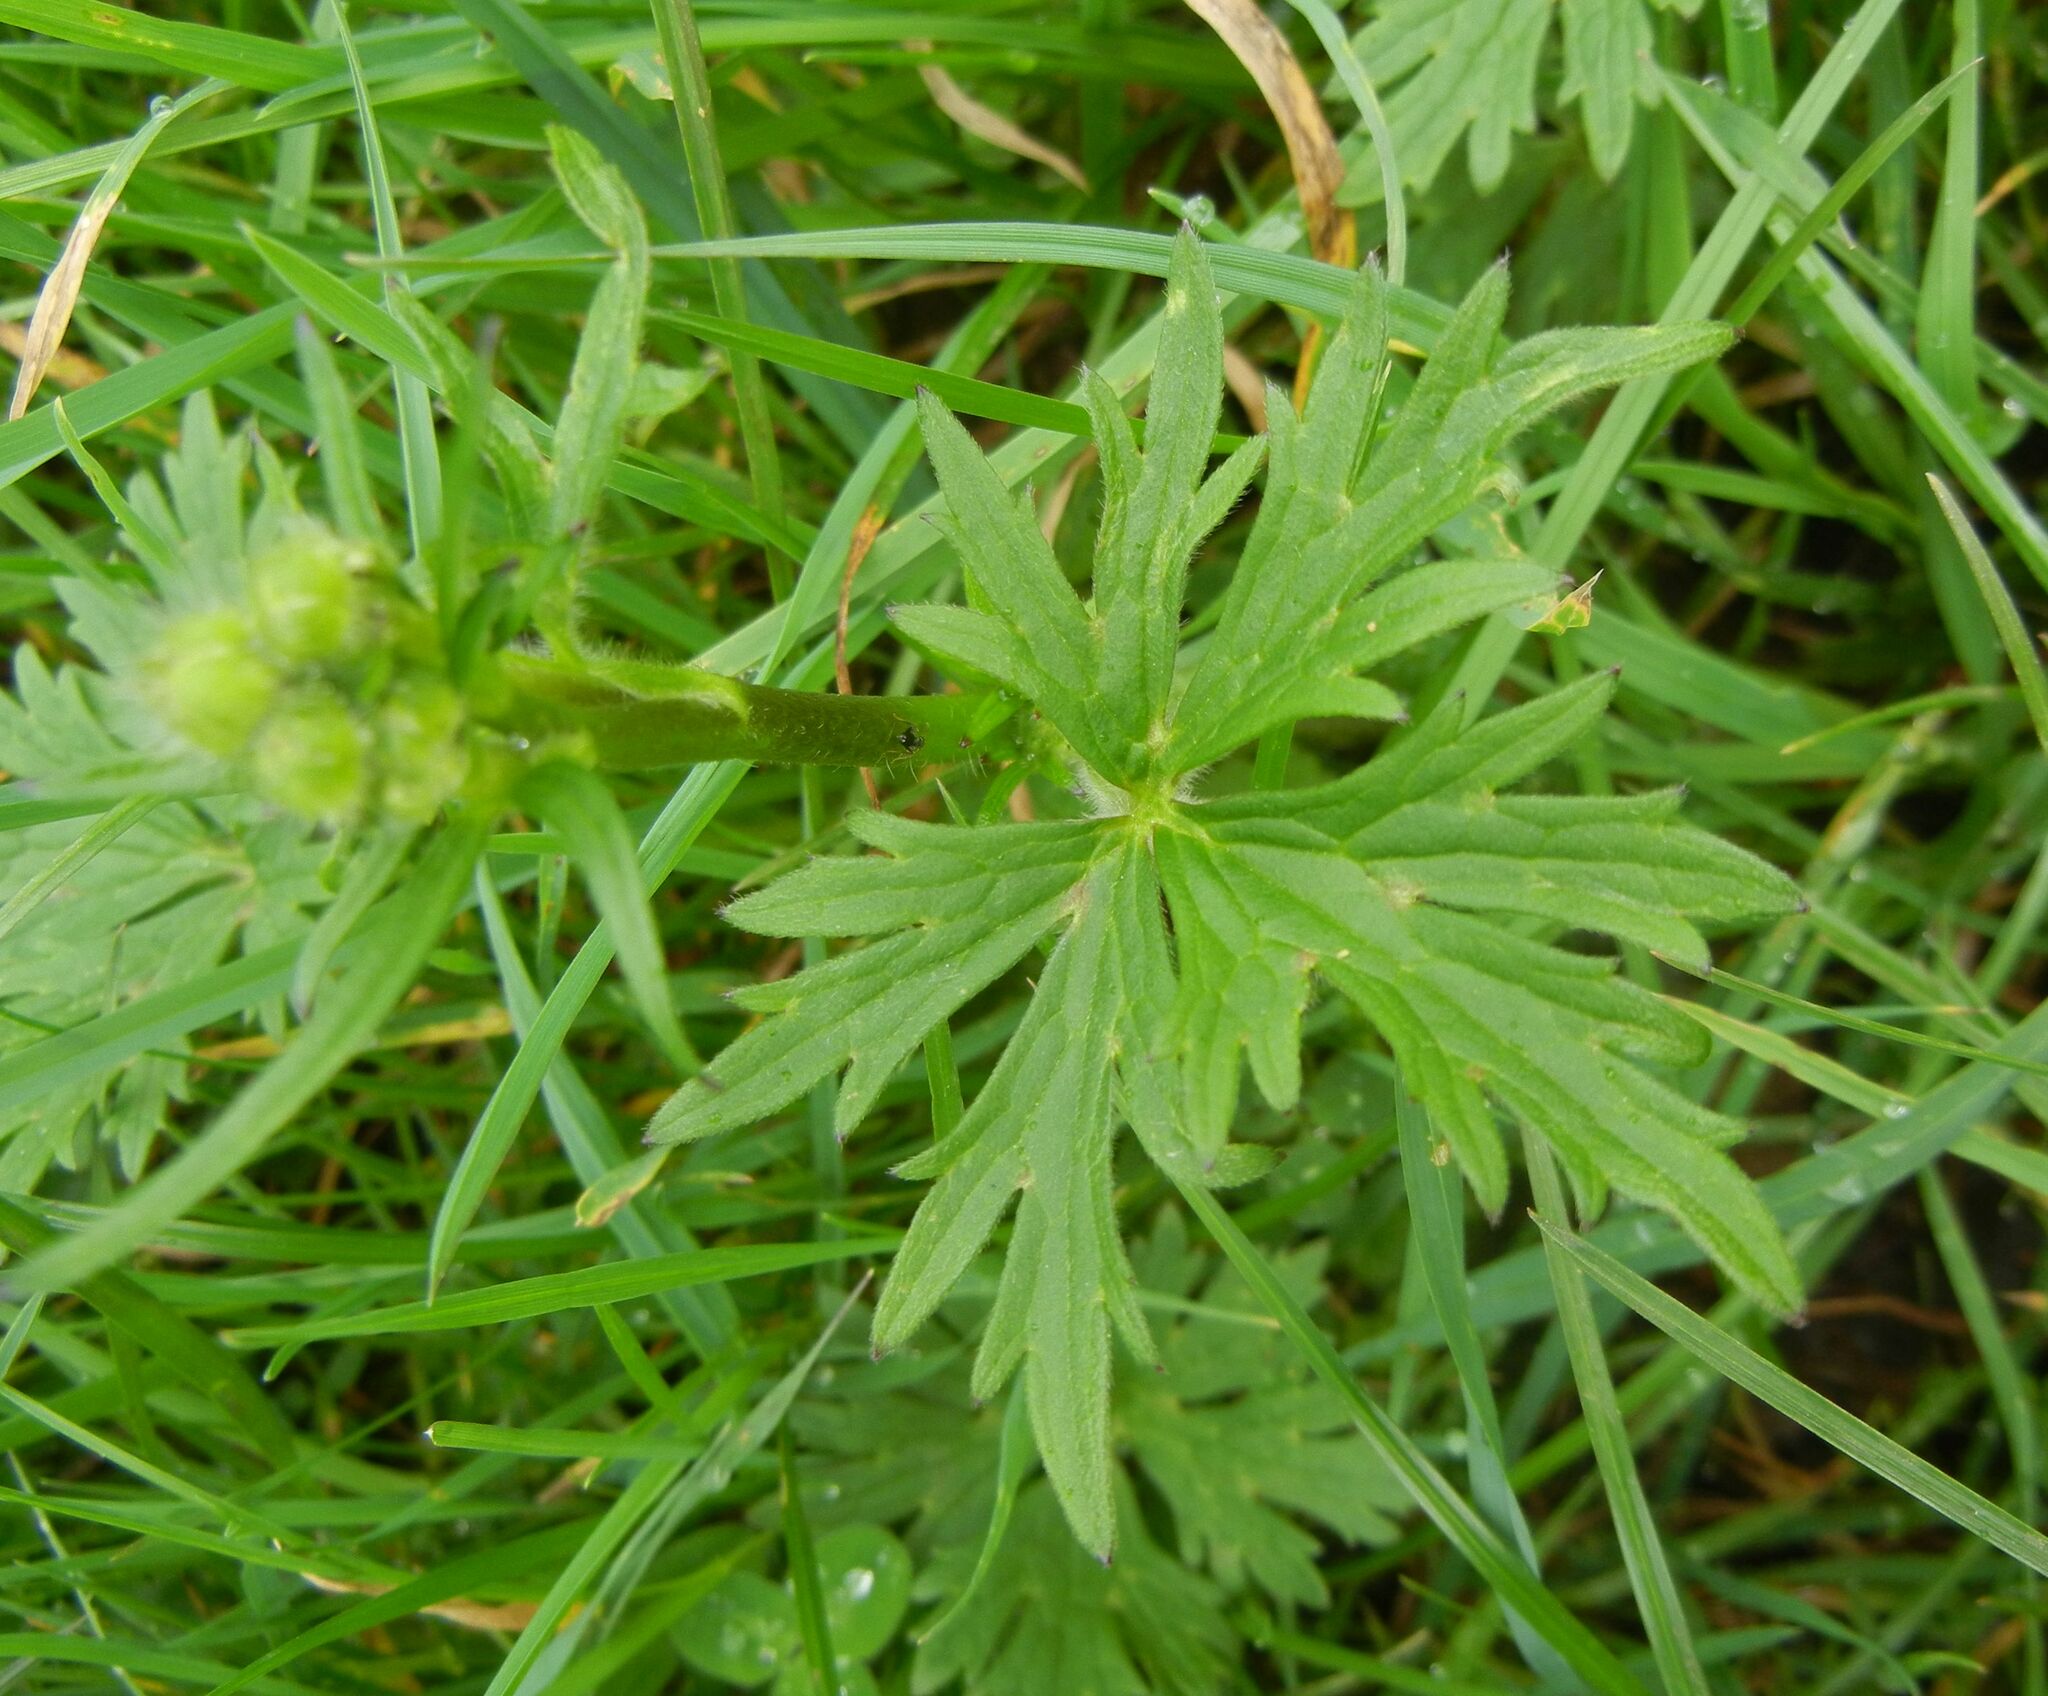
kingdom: Plantae
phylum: Tracheophyta
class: Magnoliopsida
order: Ranunculales
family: Ranunculaceae
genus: Ranunculus
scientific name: Ranunculus acris
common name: Meadow buttercup
